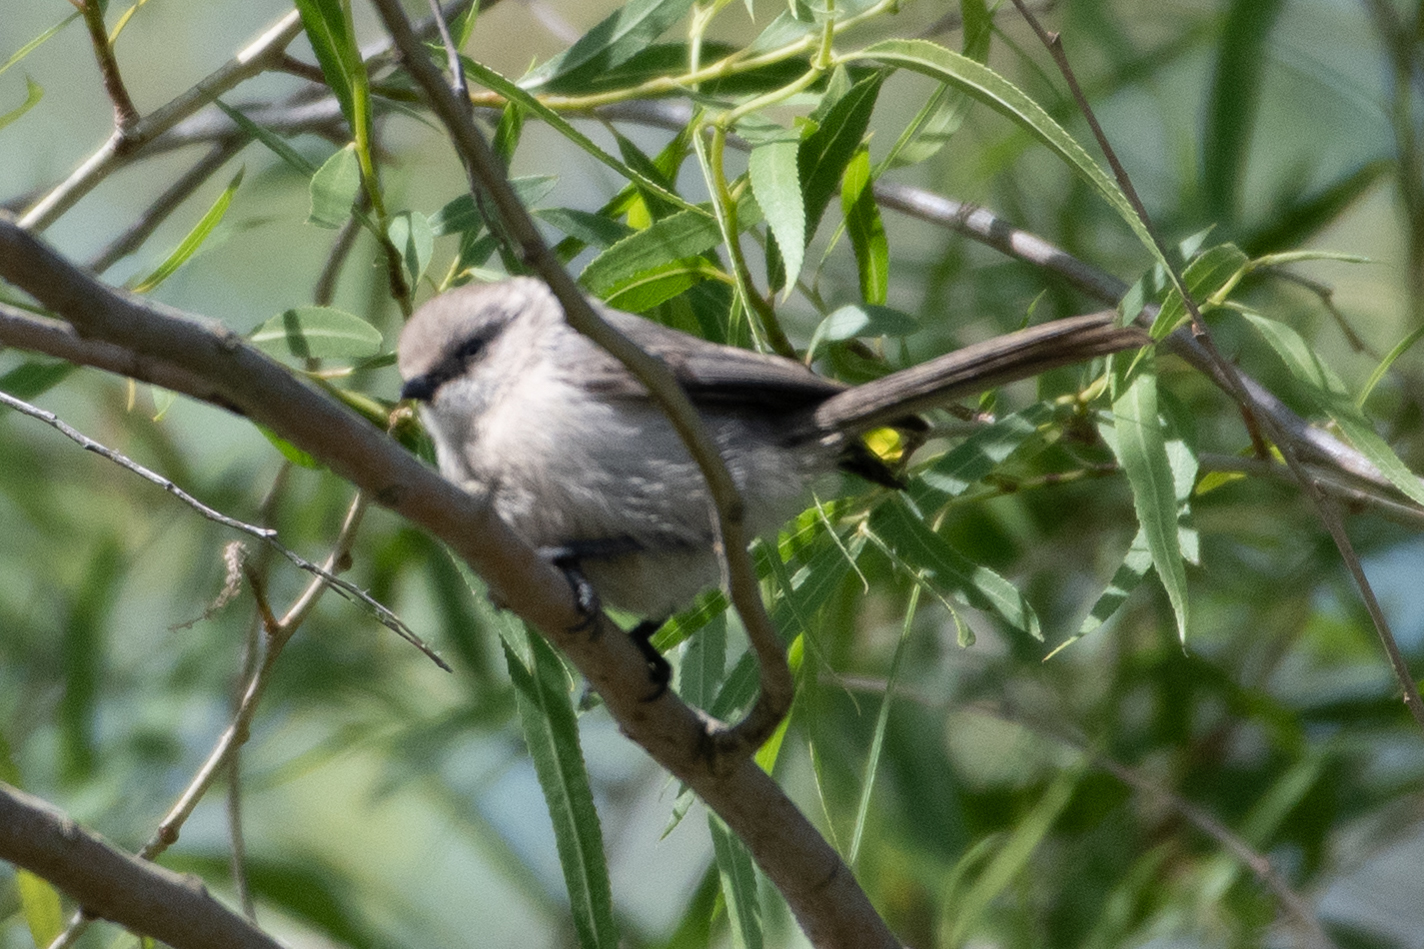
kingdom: Animalia
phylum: Chordata
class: Aves
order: Passeriformes
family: Aegithalidae
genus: Psaltriparus
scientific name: Psaltriparus minimus
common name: American bushtit
